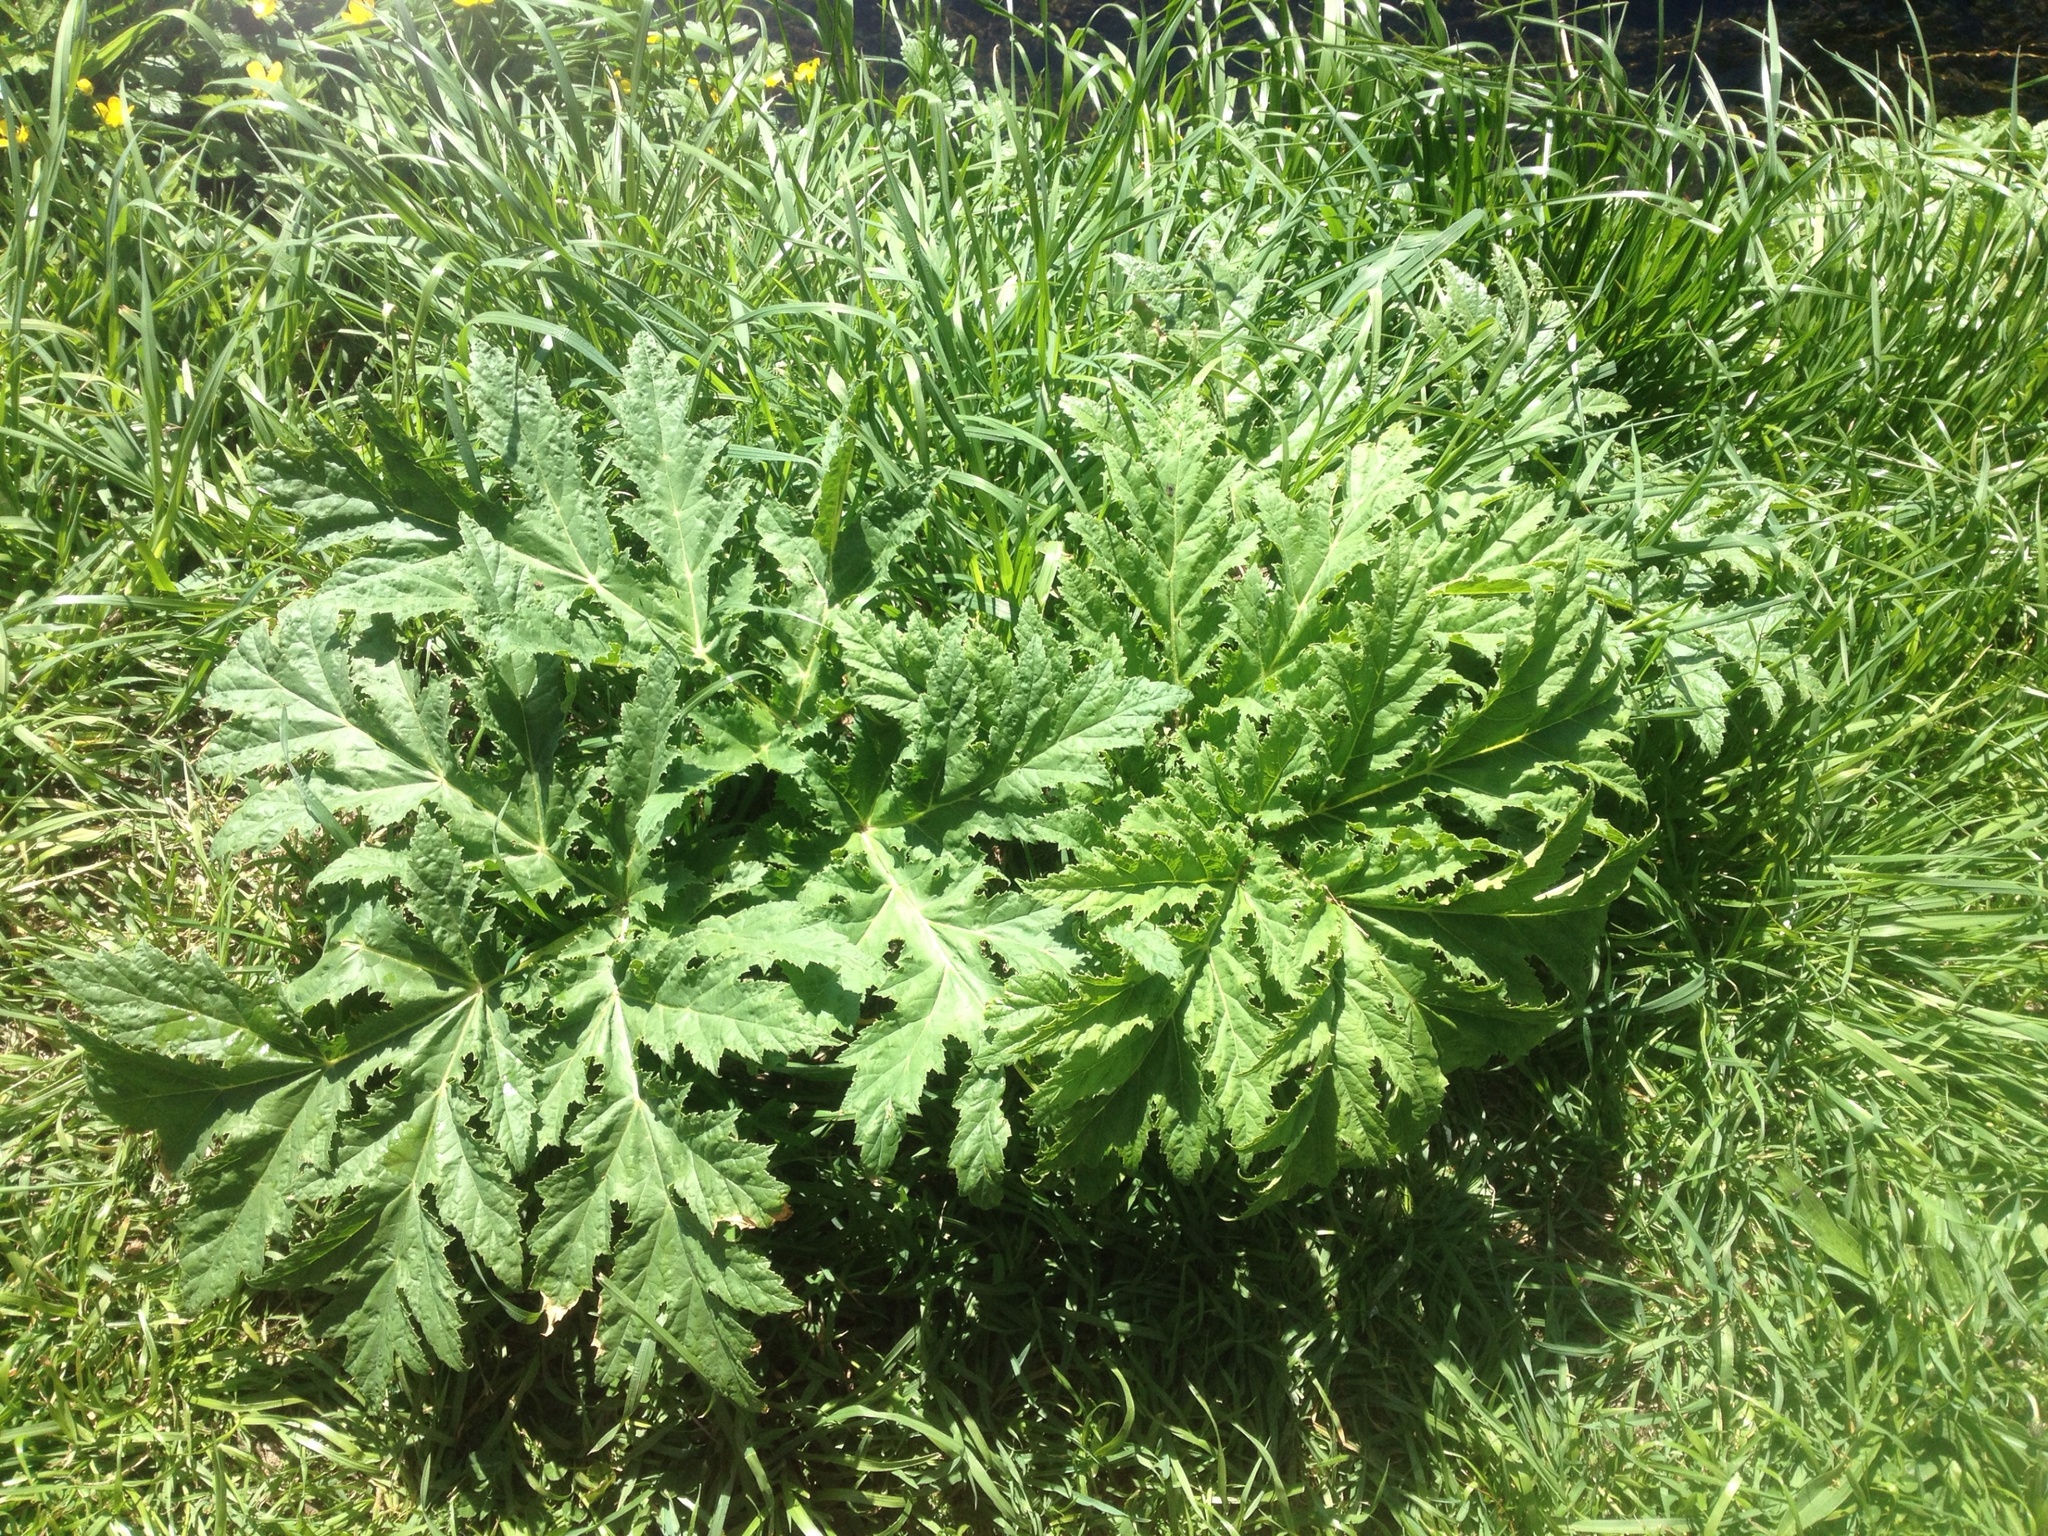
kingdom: Plantae
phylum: Tracheophyta
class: Magnoliopsida
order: Apiales
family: Apiaceae
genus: Heracleum
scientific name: Heracleum mantegazzianum
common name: Giant hogweed
